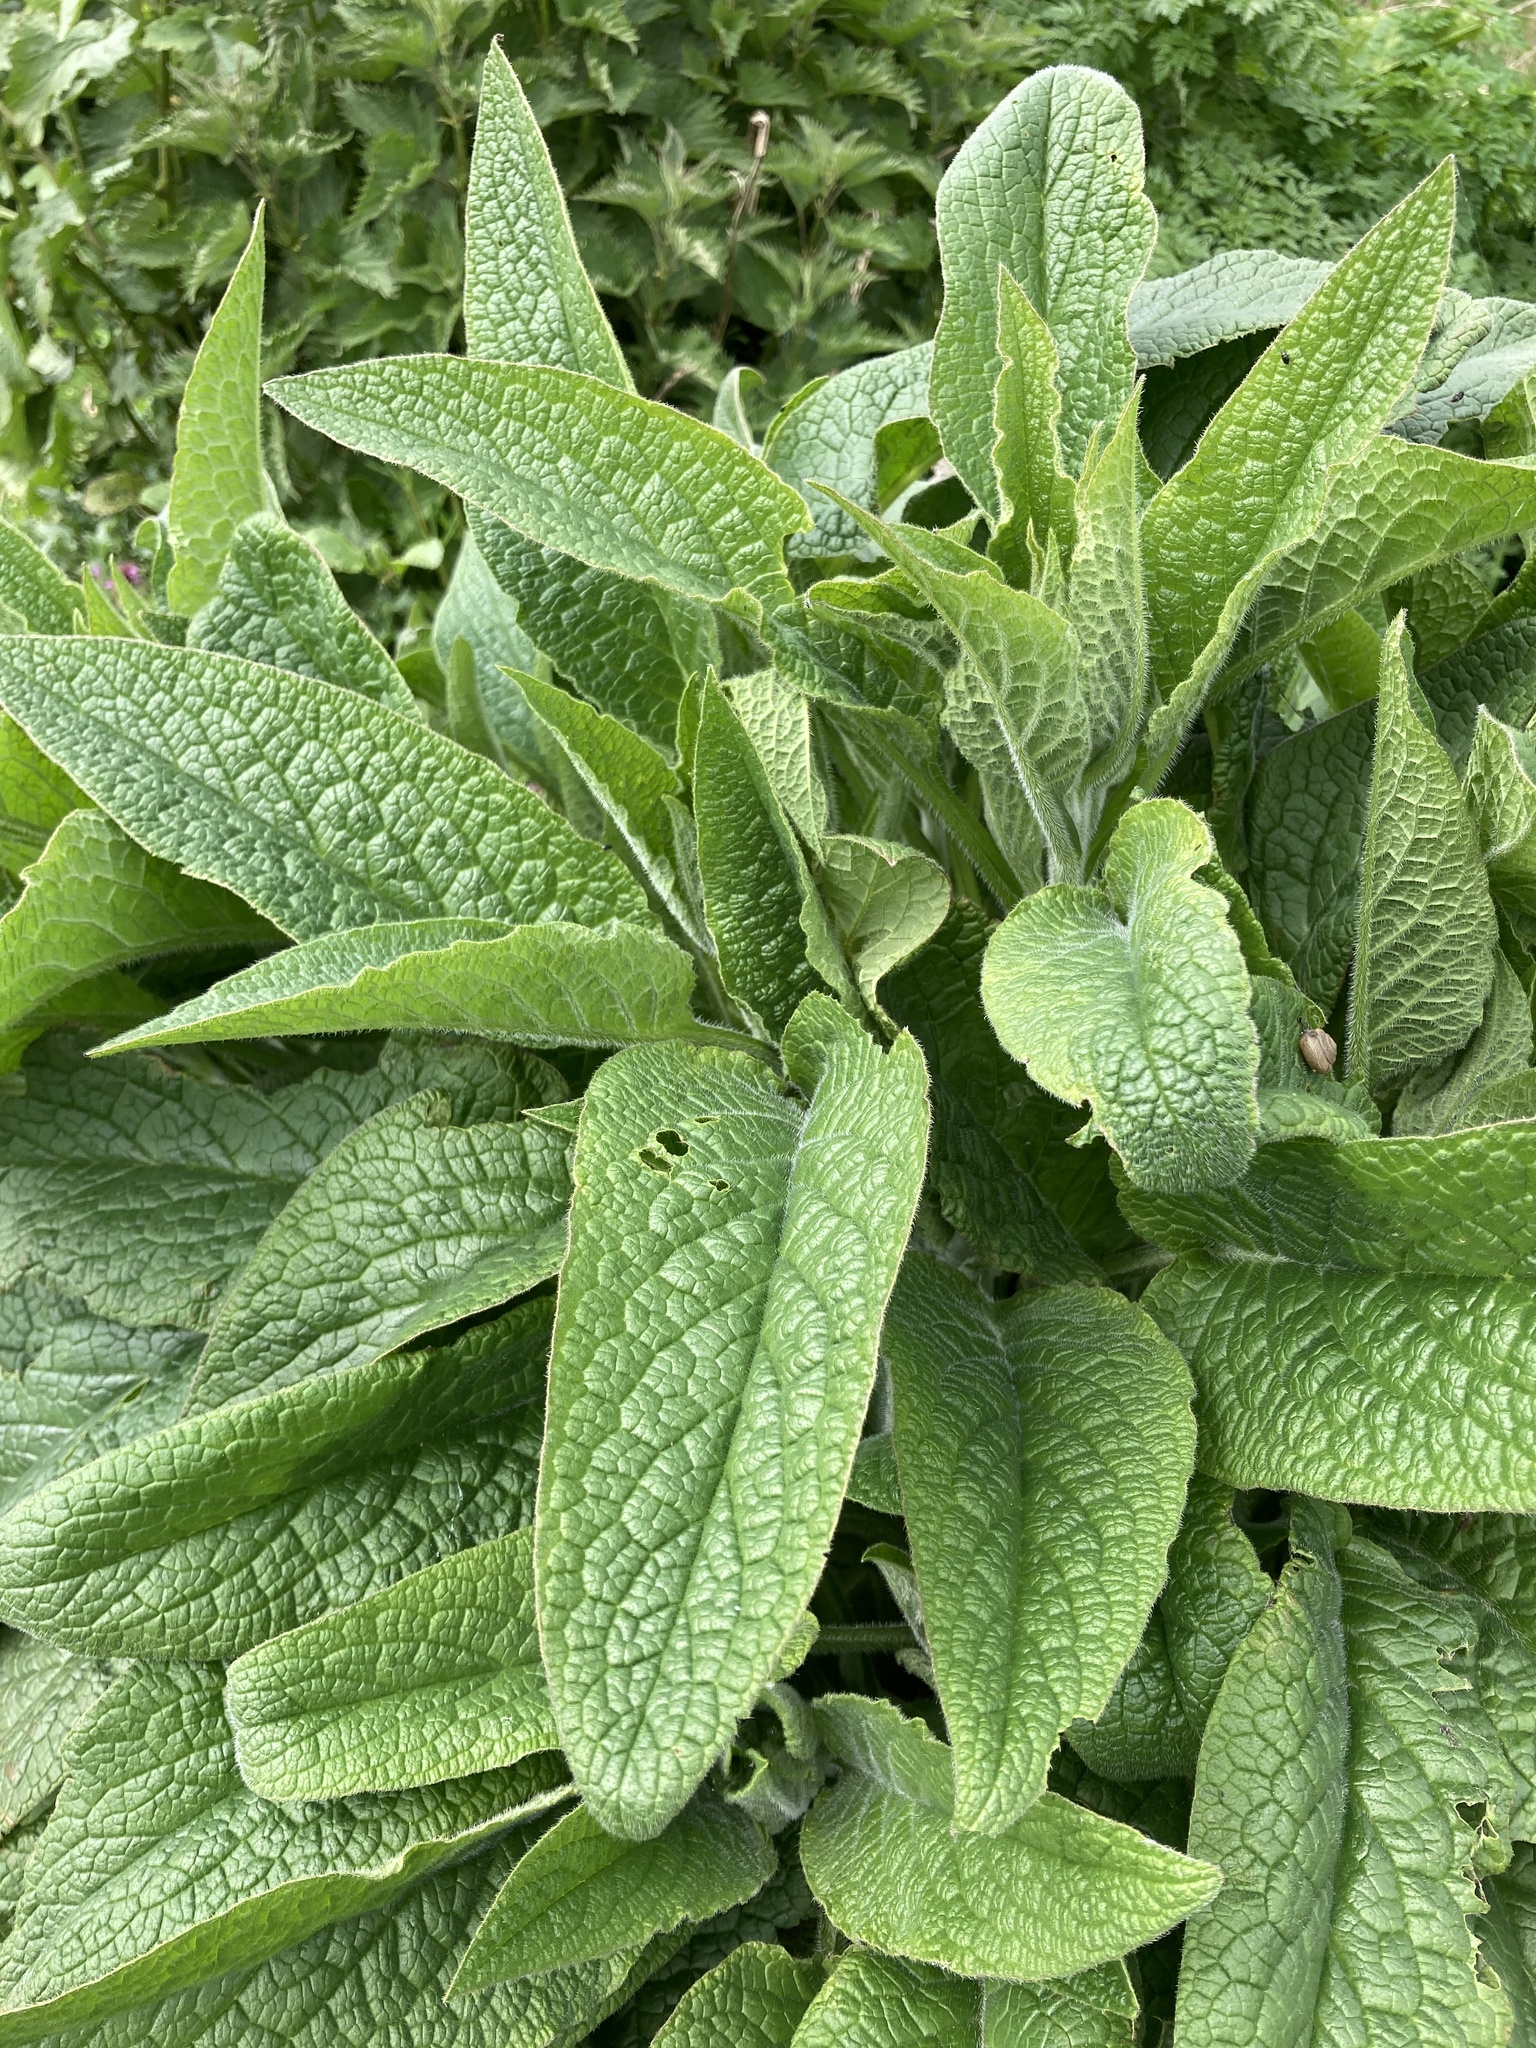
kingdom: Plantae
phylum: Tracheophyta
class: Magnoliopsida
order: Lamiales
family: Plantaginaceae
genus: Digitalis
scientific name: Digitalis purpurea
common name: Foxglove
